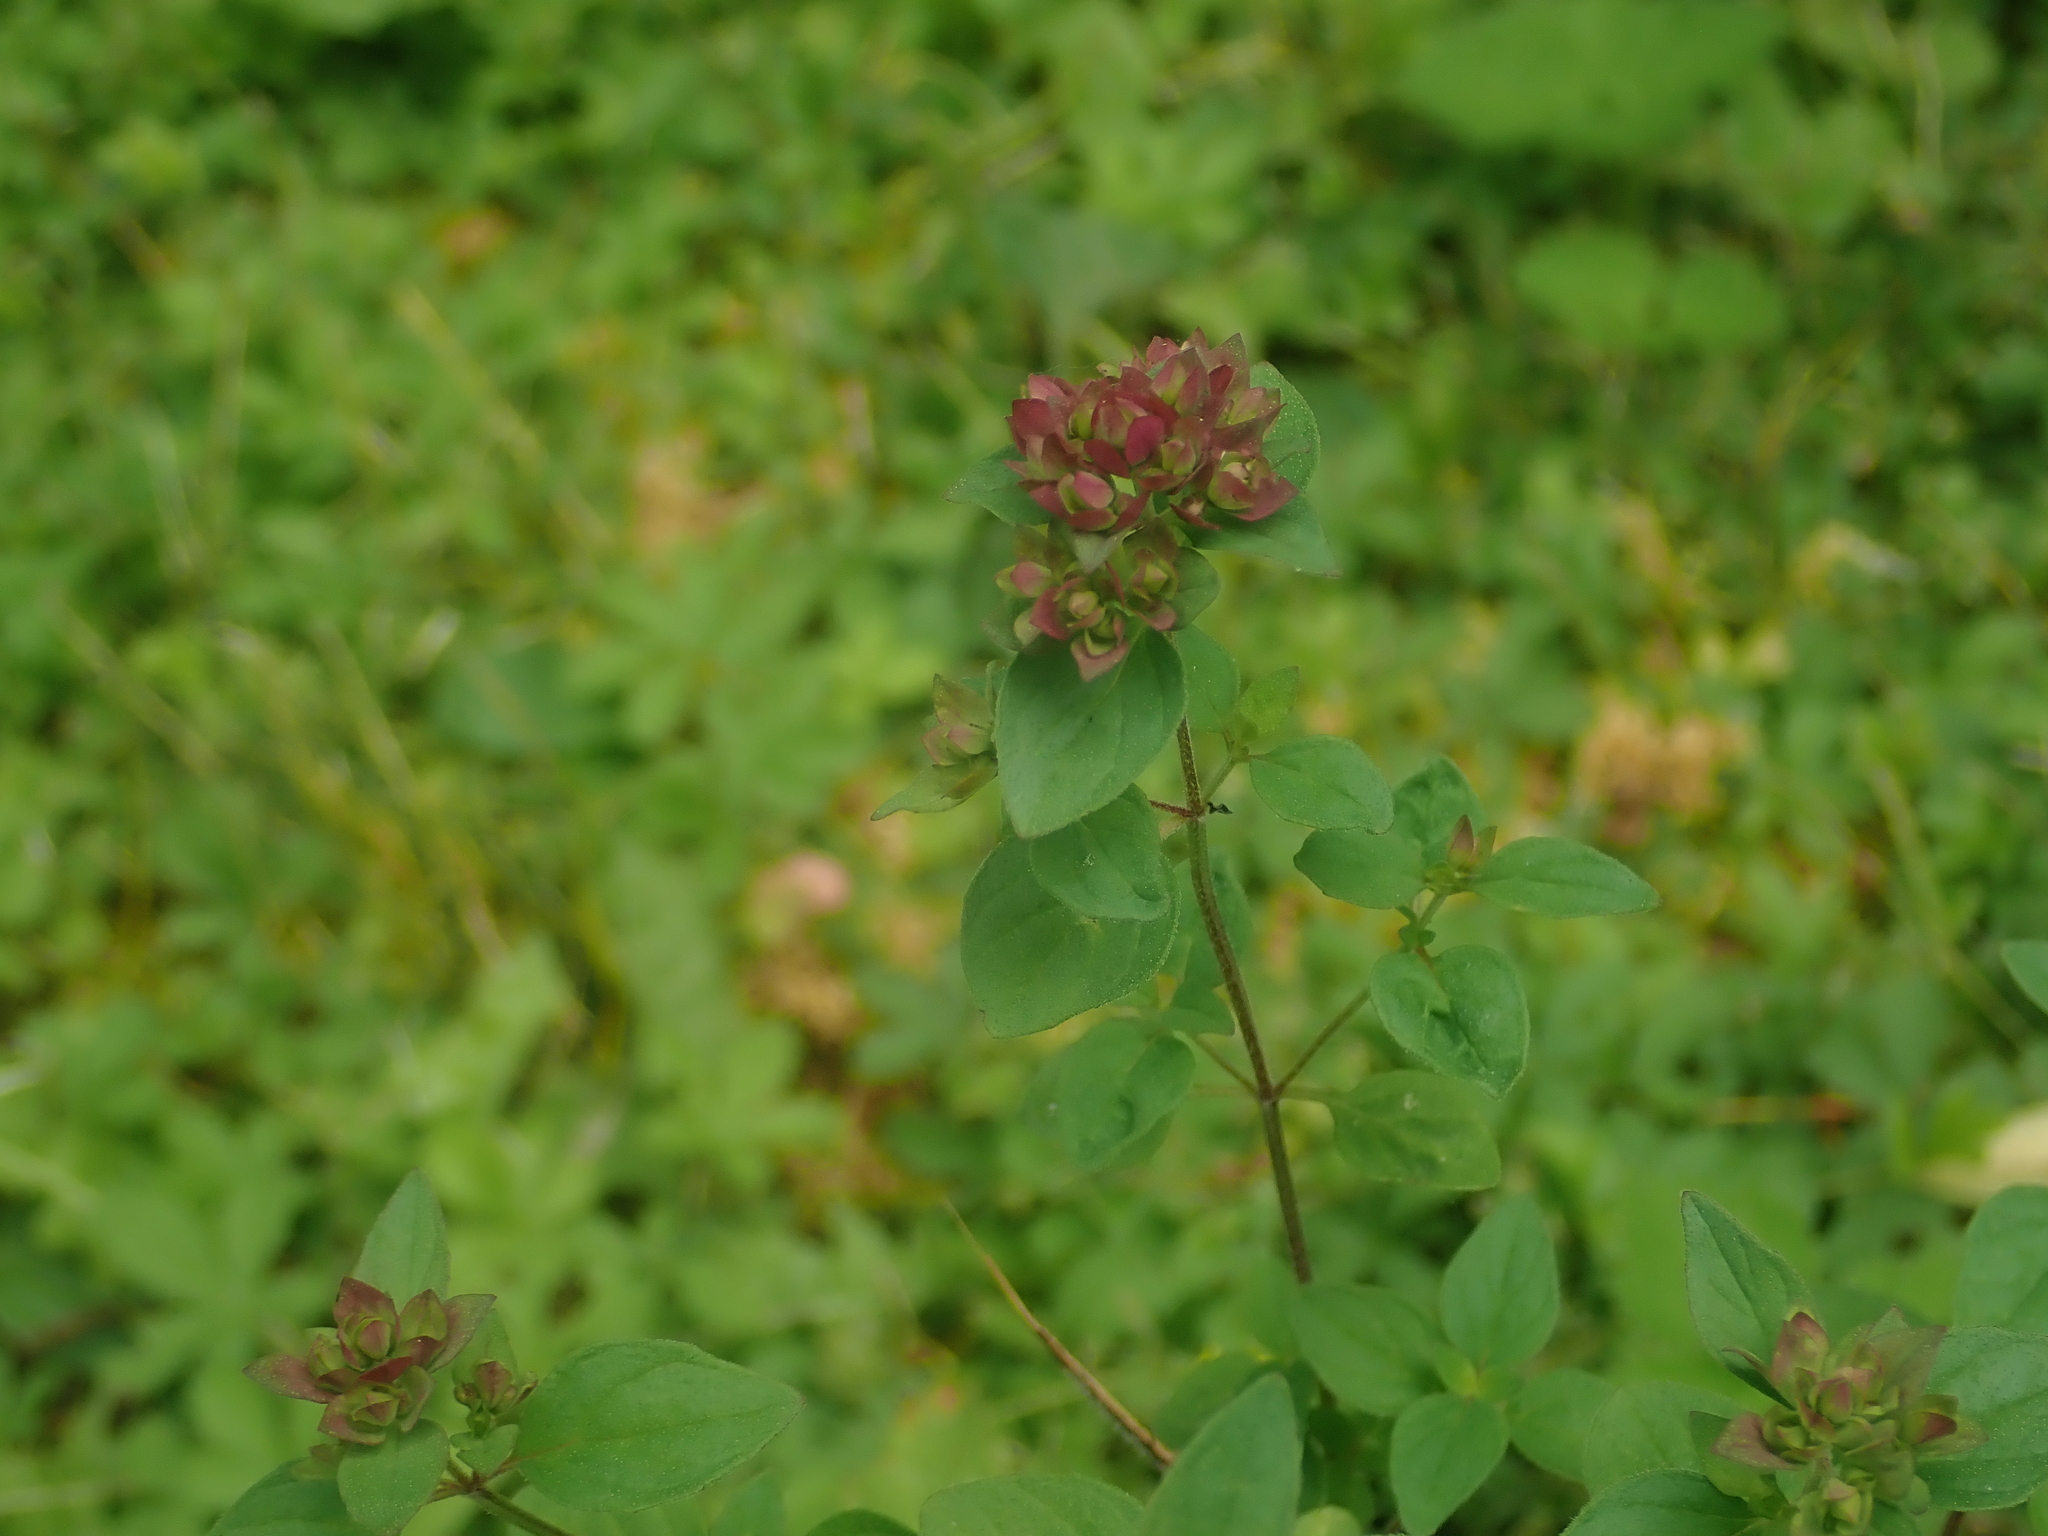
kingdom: Plantae
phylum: Tracheophyta
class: Magnoliopsida
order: Lamiales
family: Lamiaceae
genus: Origanum
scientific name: Origanum vulgare
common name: Wild marjoram
